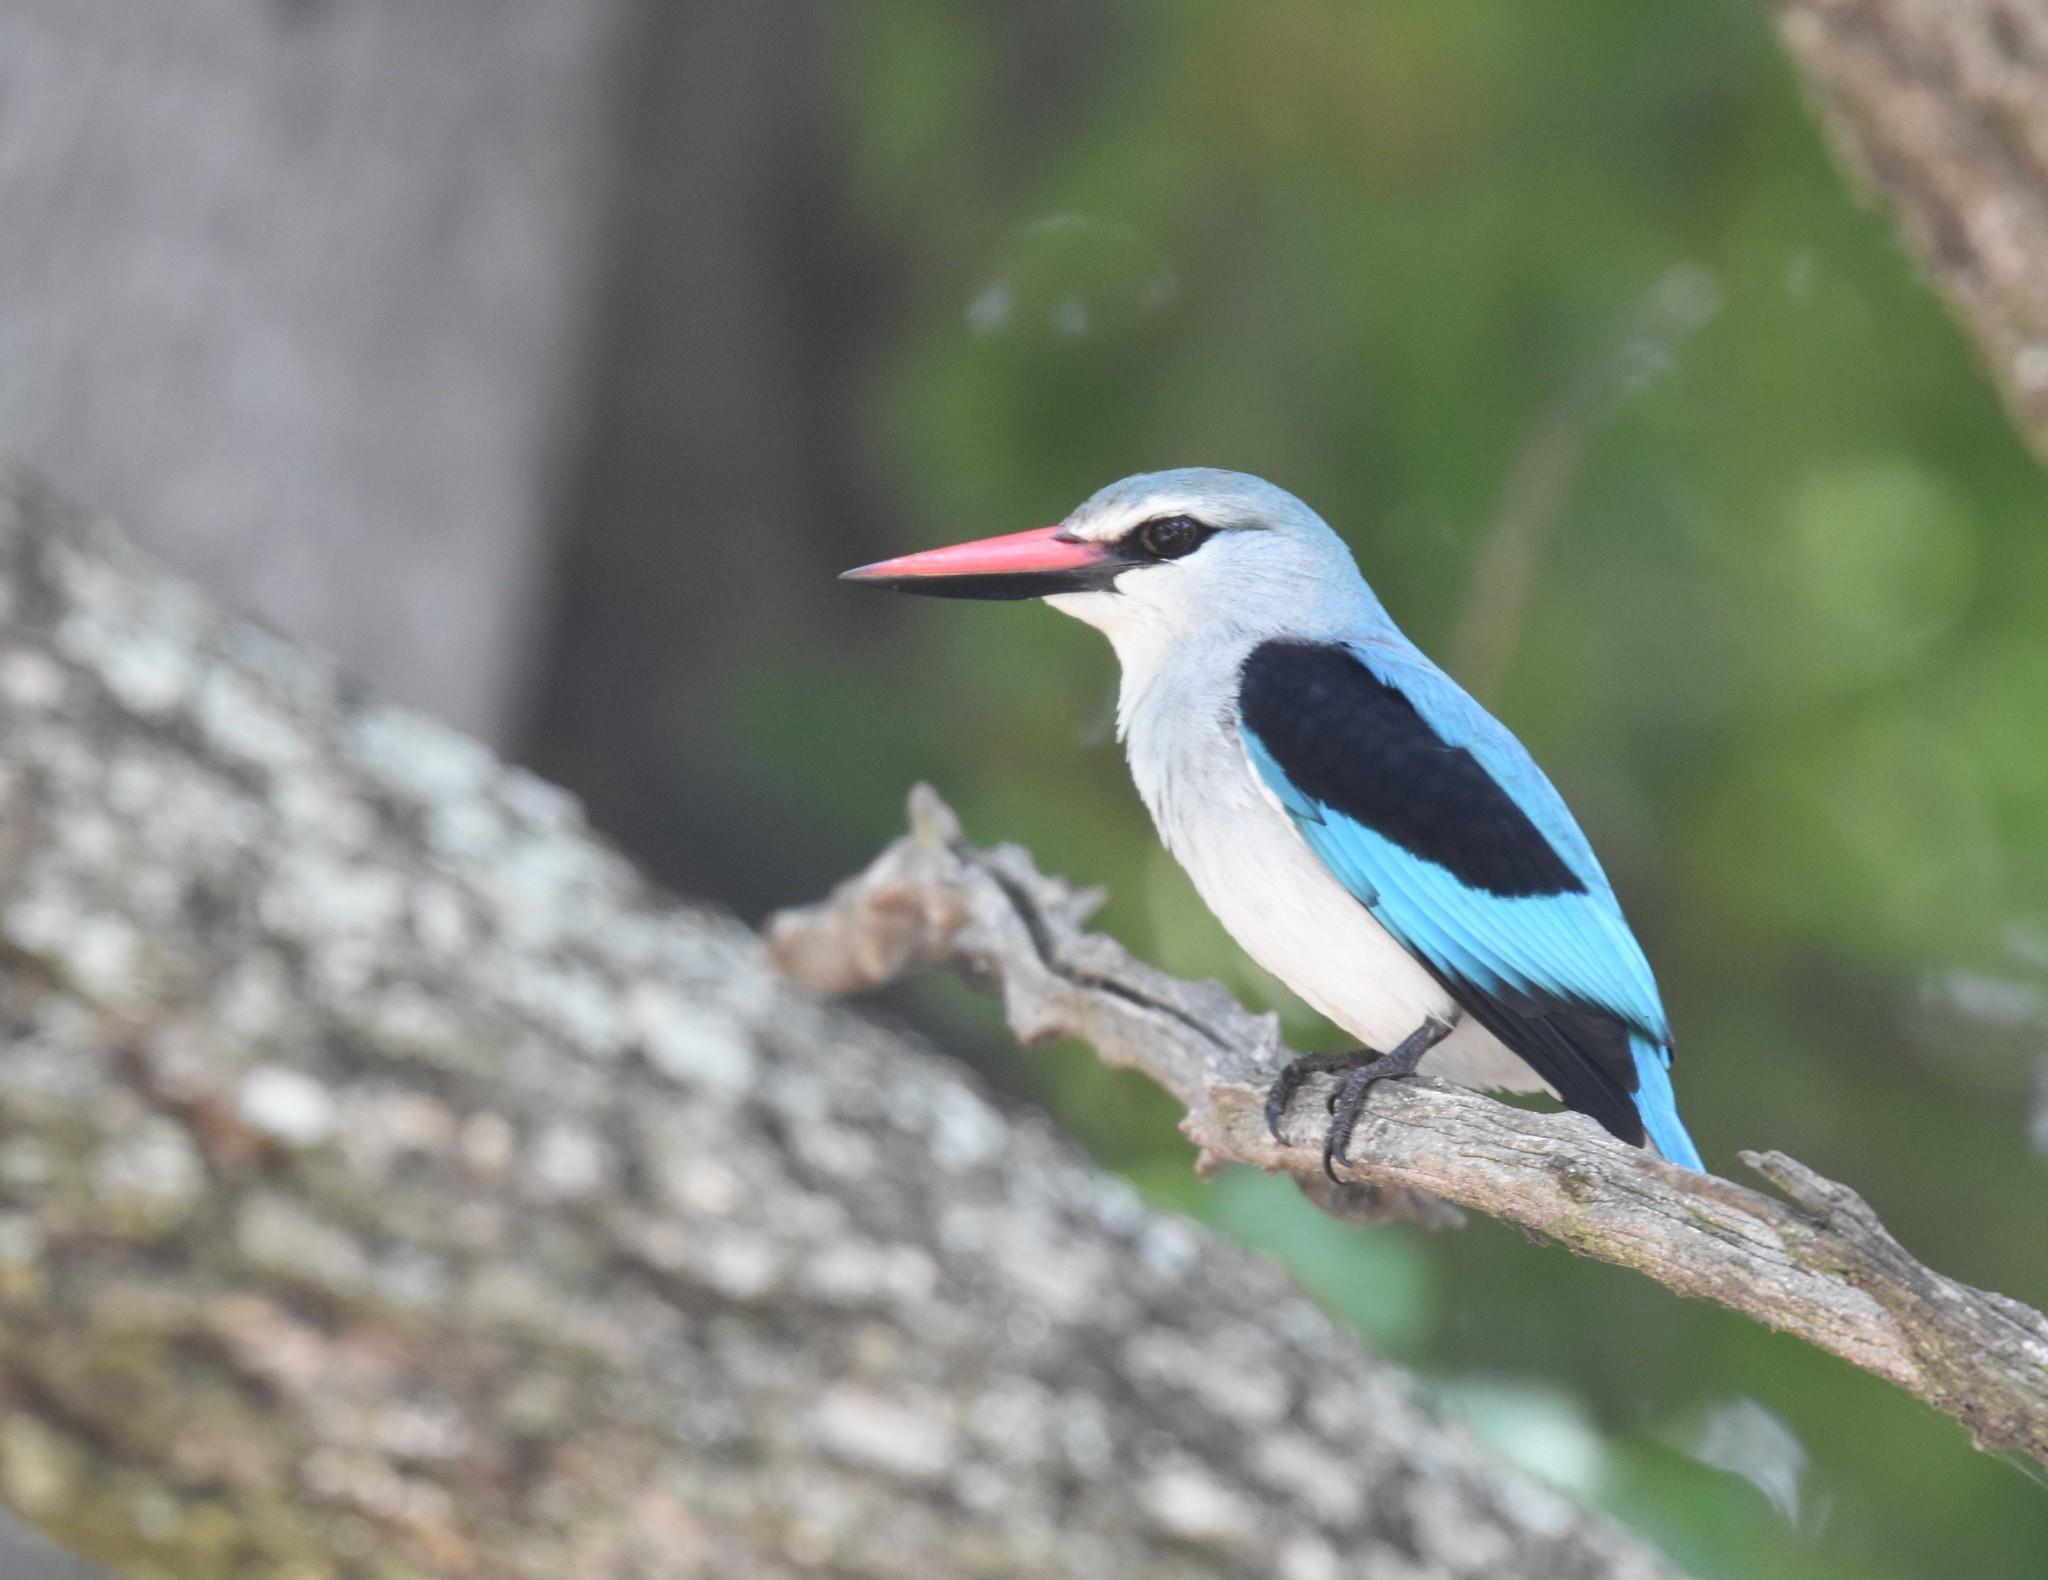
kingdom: Animalia
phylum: Chordata
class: Aves
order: Coraciiformes
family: Alcedinidae
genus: Halcyon
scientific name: Halcyon senegalensis
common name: Woodland kingfisher
